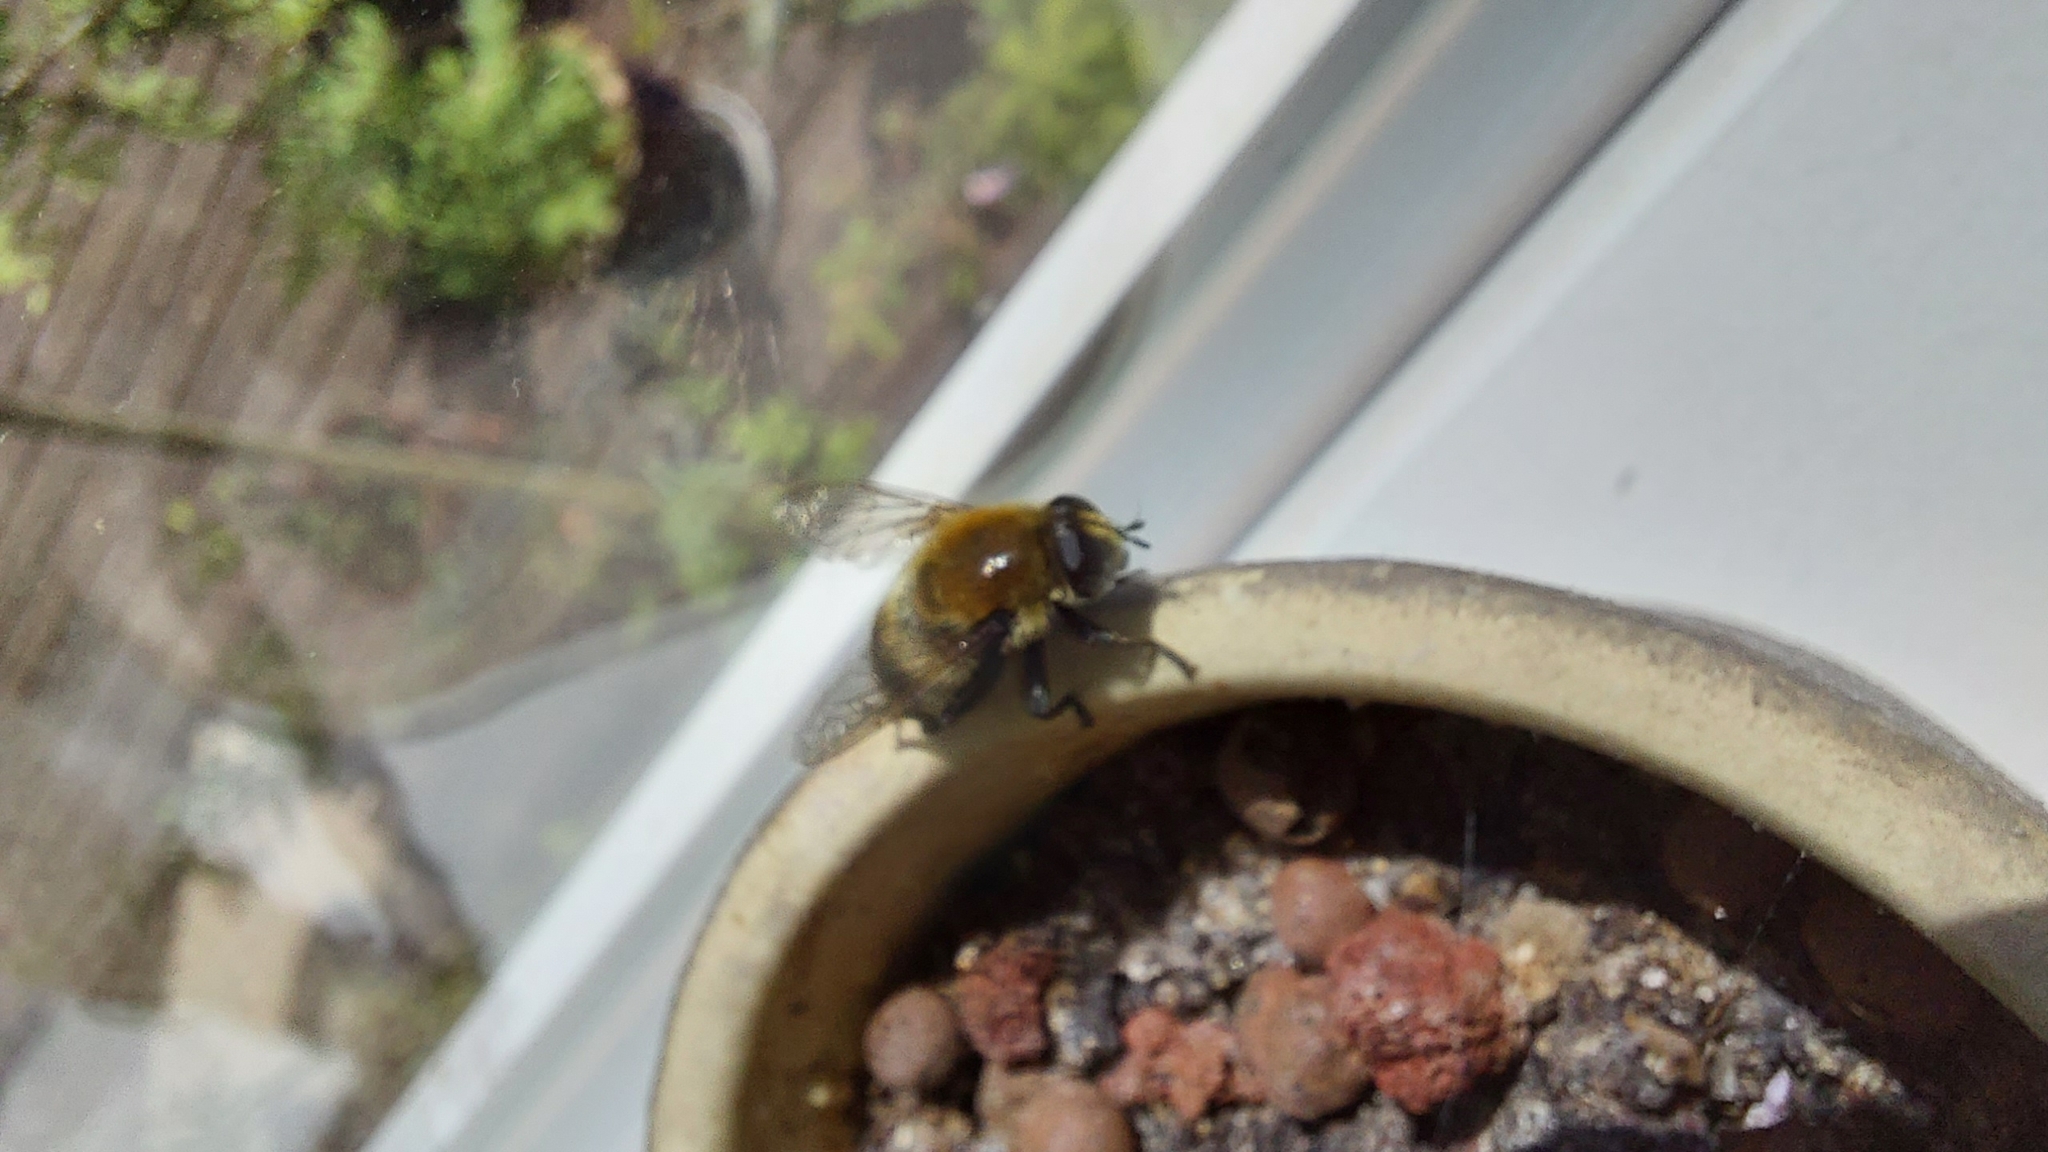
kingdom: Animalia
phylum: Arthropoda
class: Insecta
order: Diptera
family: Syrphidae
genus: Merodon
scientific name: Merodon equestris
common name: Greater bulb-fly
